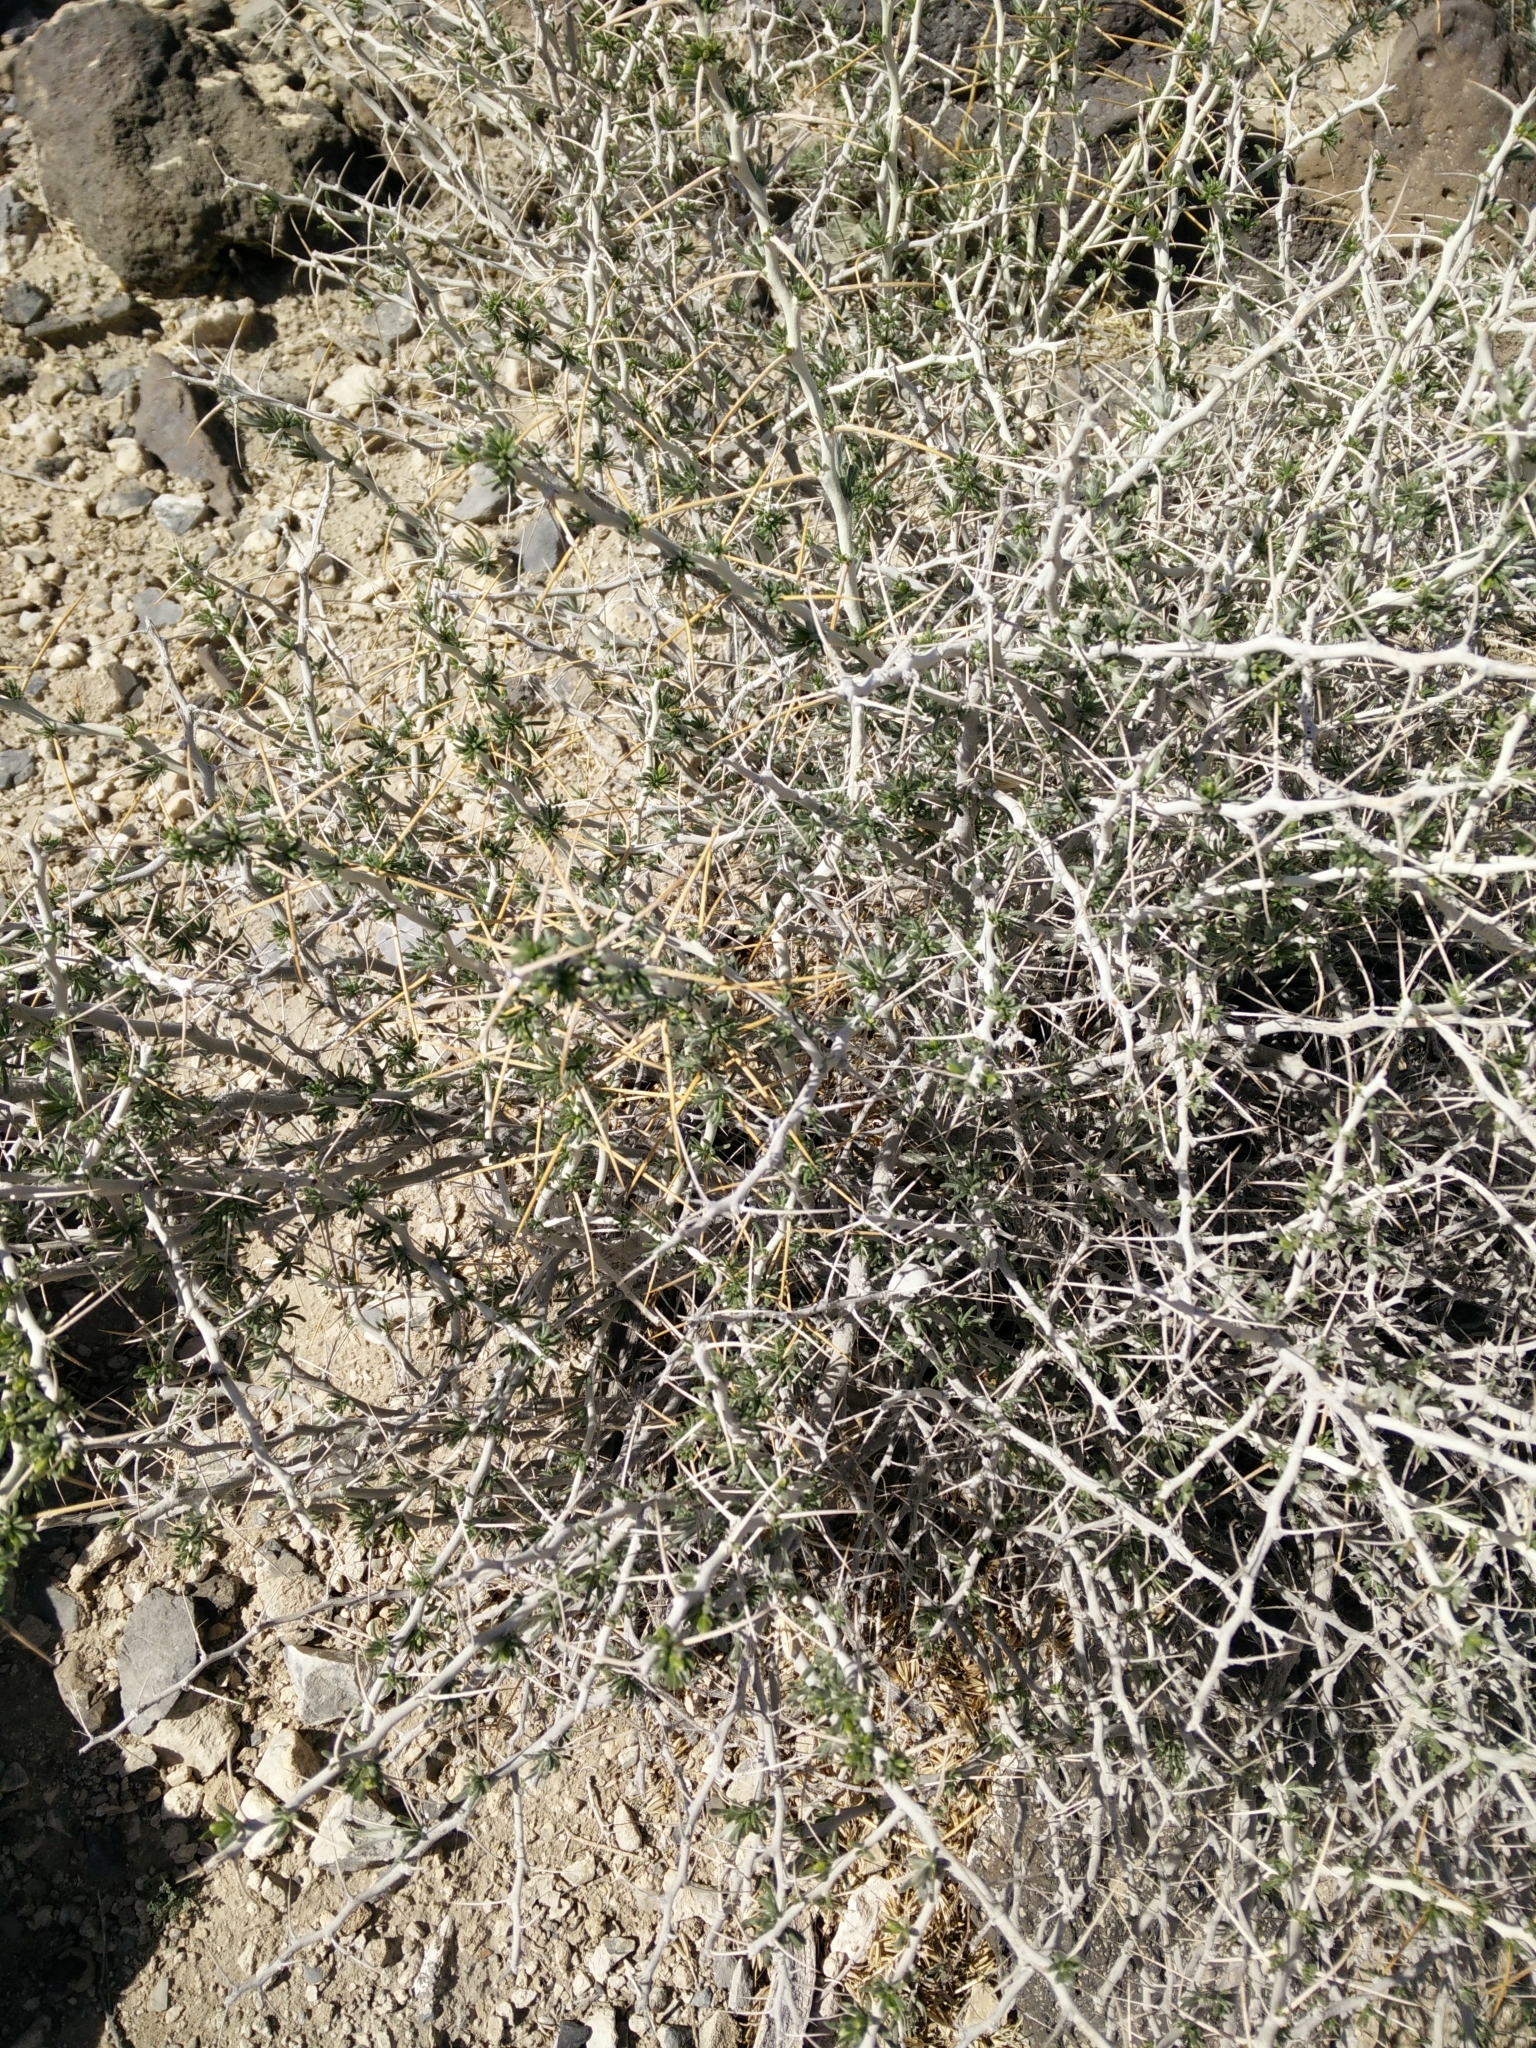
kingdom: Plantae
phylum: Tracheophyta
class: Magnoliopsida
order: Asterales
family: Asteraceae
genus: Tetradymia
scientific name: Tetradymia axillaris
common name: Long-spine horsebrush
